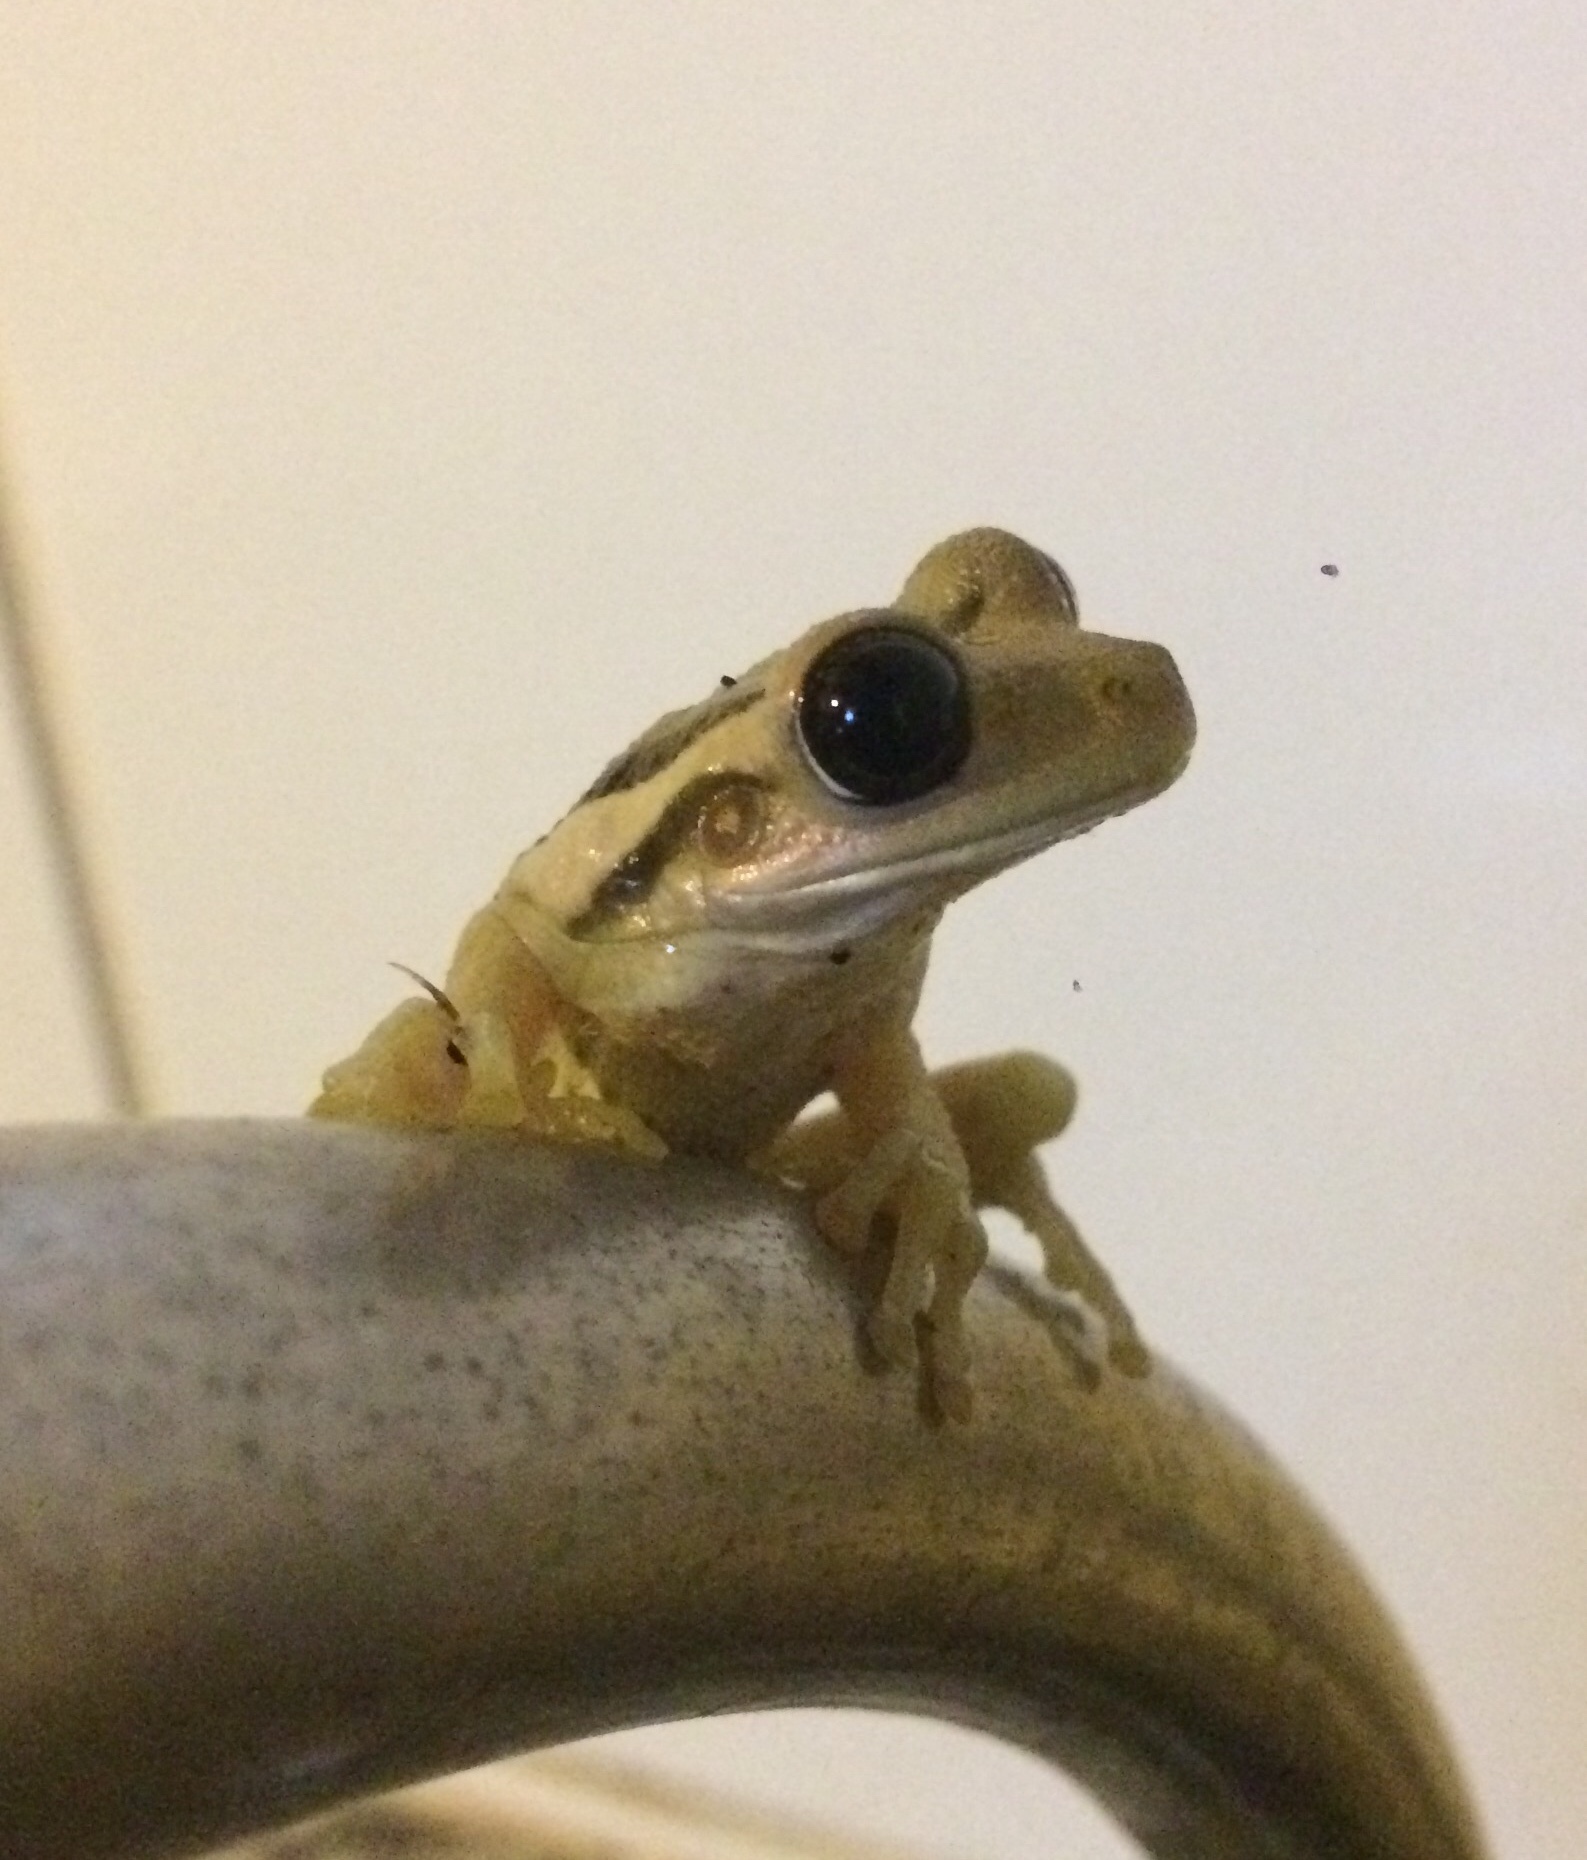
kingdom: Animalia
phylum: Chordata
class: Amphibia
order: Anura
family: Hylidae
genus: Trachycephalus
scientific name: Trachycephalus mesophaeus
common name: Porto alegre golden-eyed treefrog
